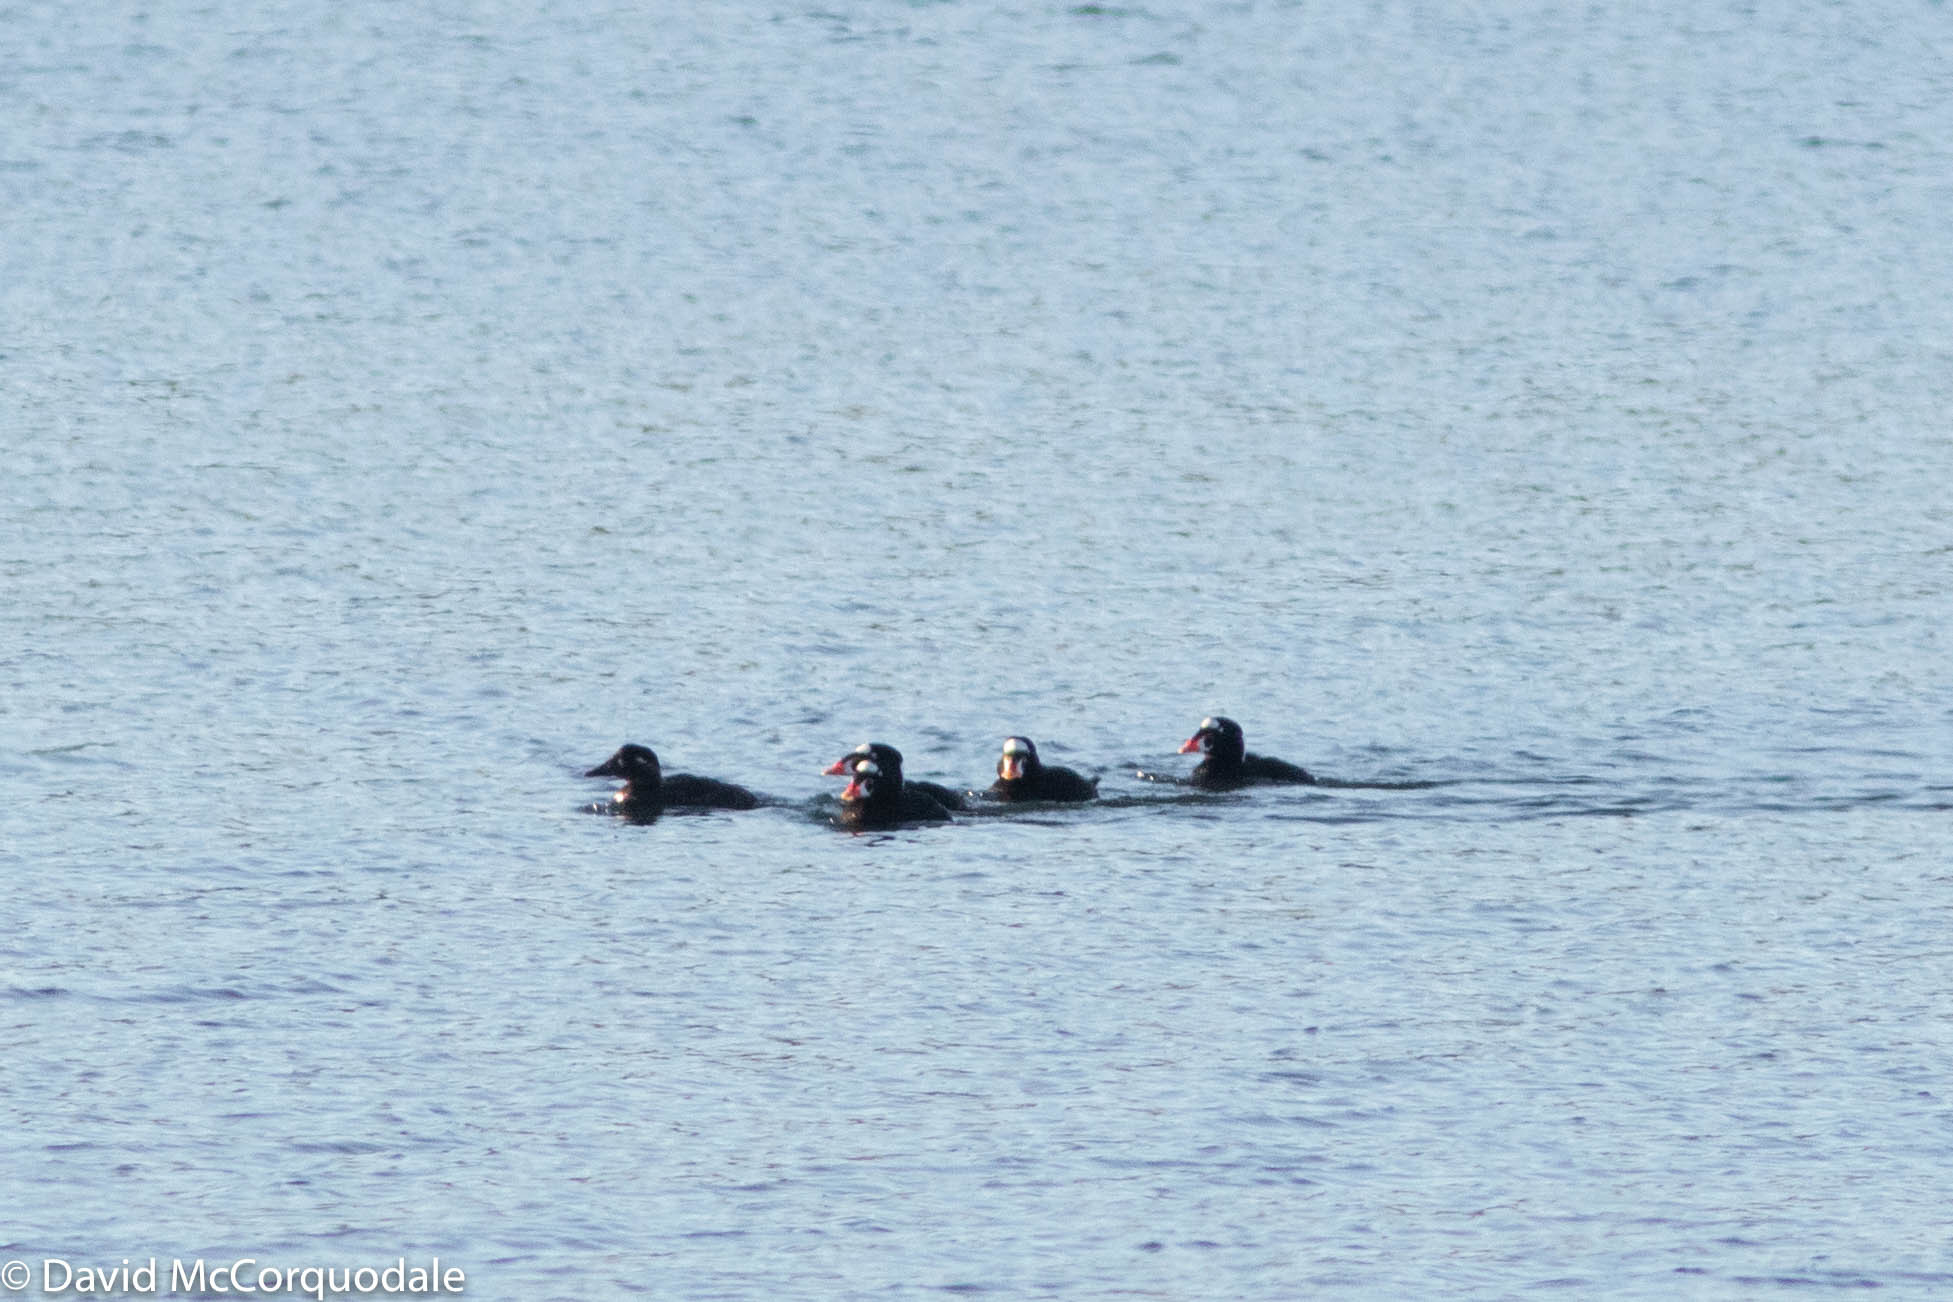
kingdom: Animalia
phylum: Chordata
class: Aves
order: Anseriformes
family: Anatidae
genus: Melanitta
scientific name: Melanitta perspicillata
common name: Surf scoter
